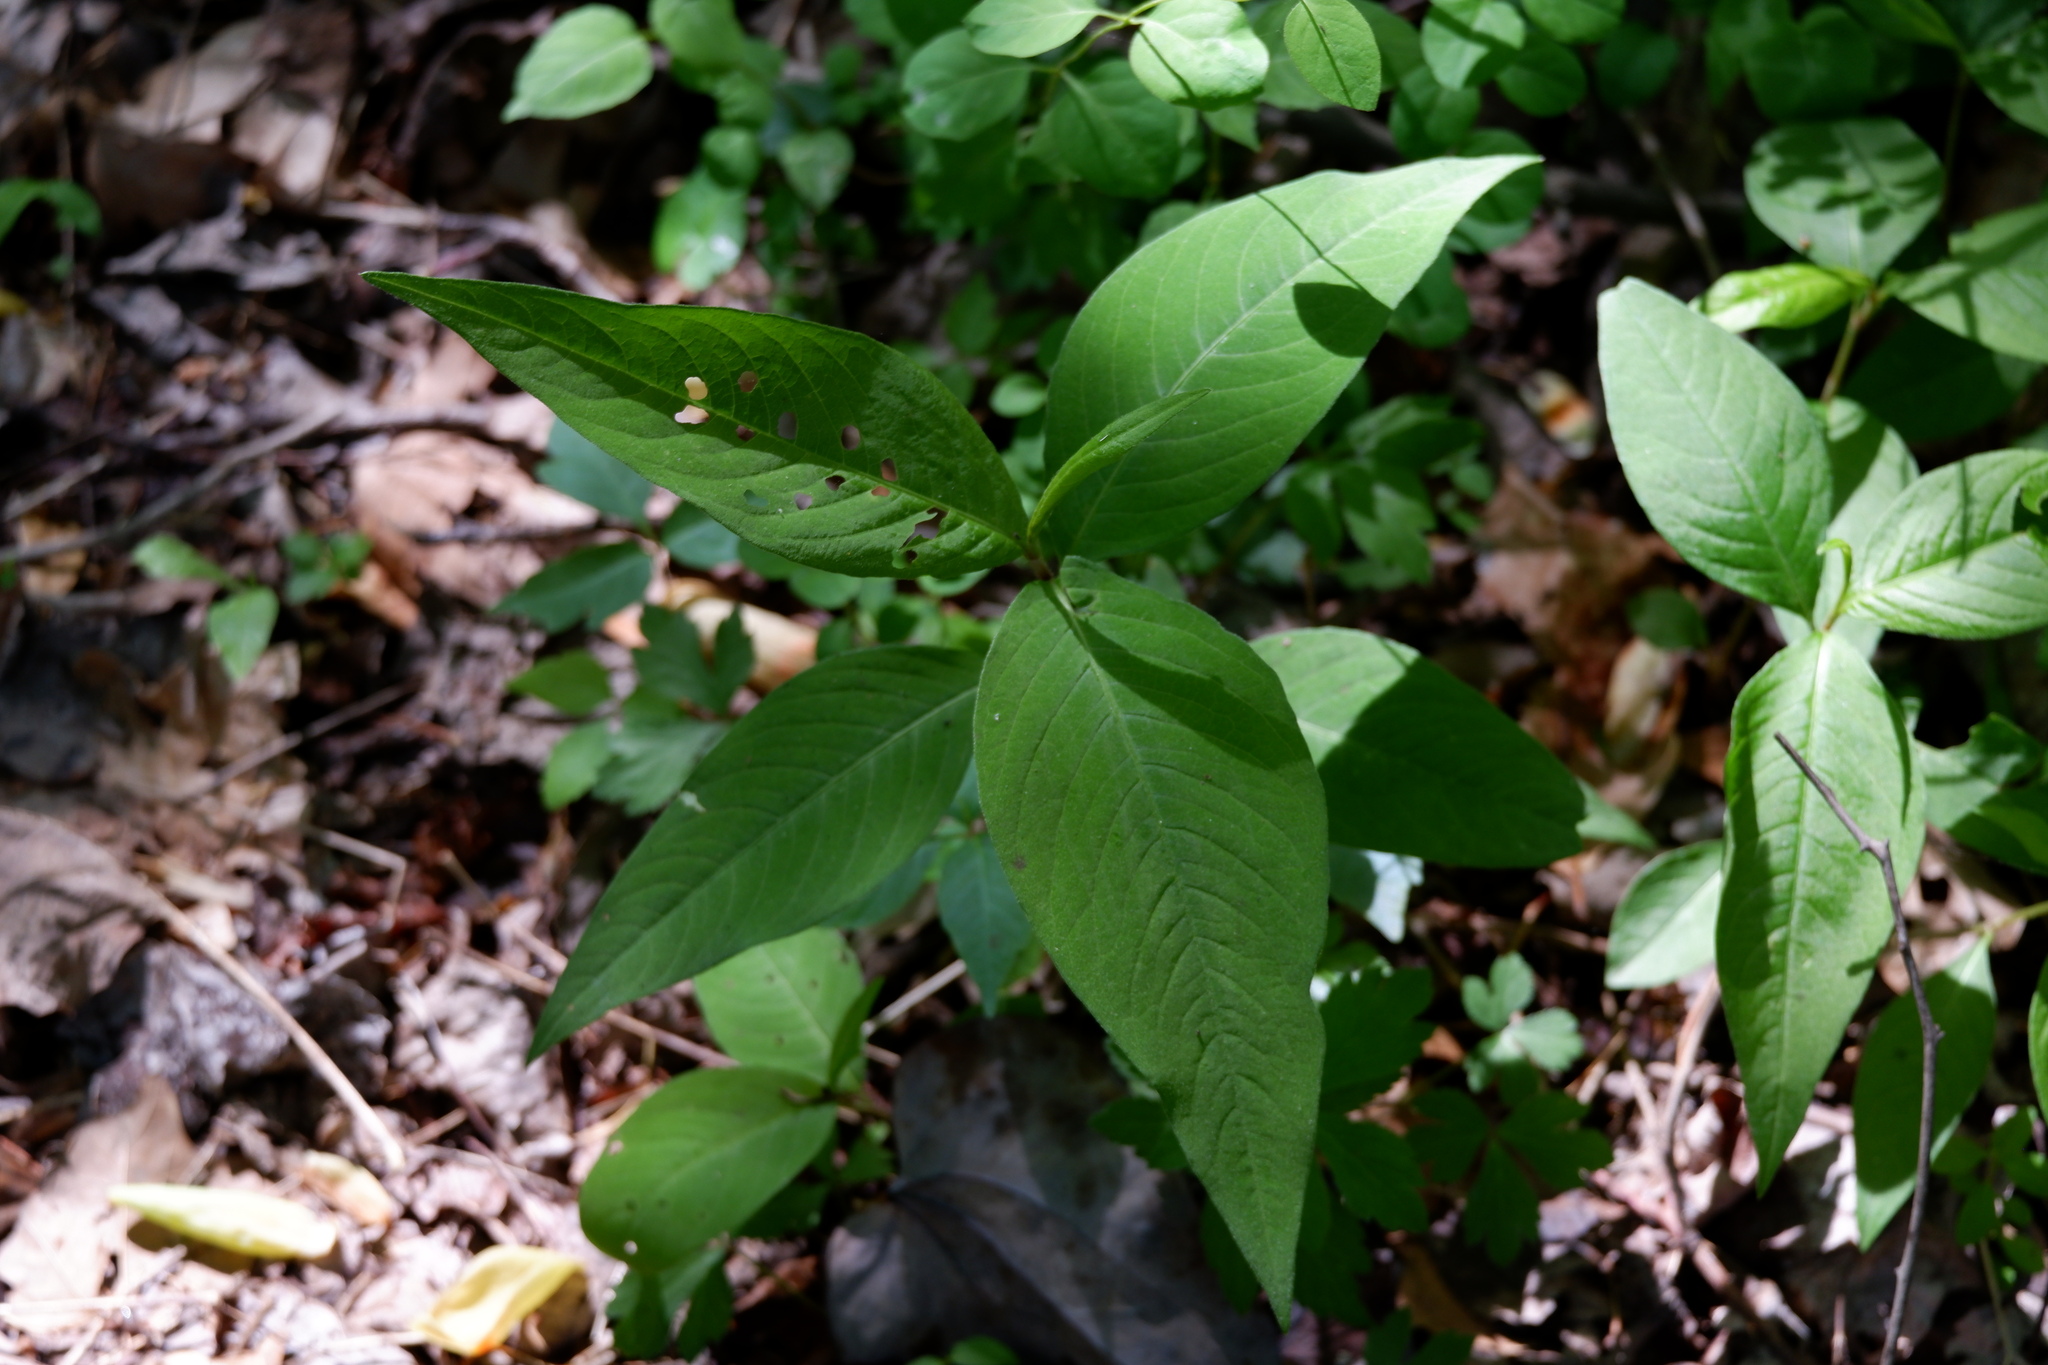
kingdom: Plantae
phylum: Tracheophyta
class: Magnoliopsida
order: Caryophyllales
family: Polygonaceae
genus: Persicaria
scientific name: Persicaria virginiana
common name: Jumpseed
